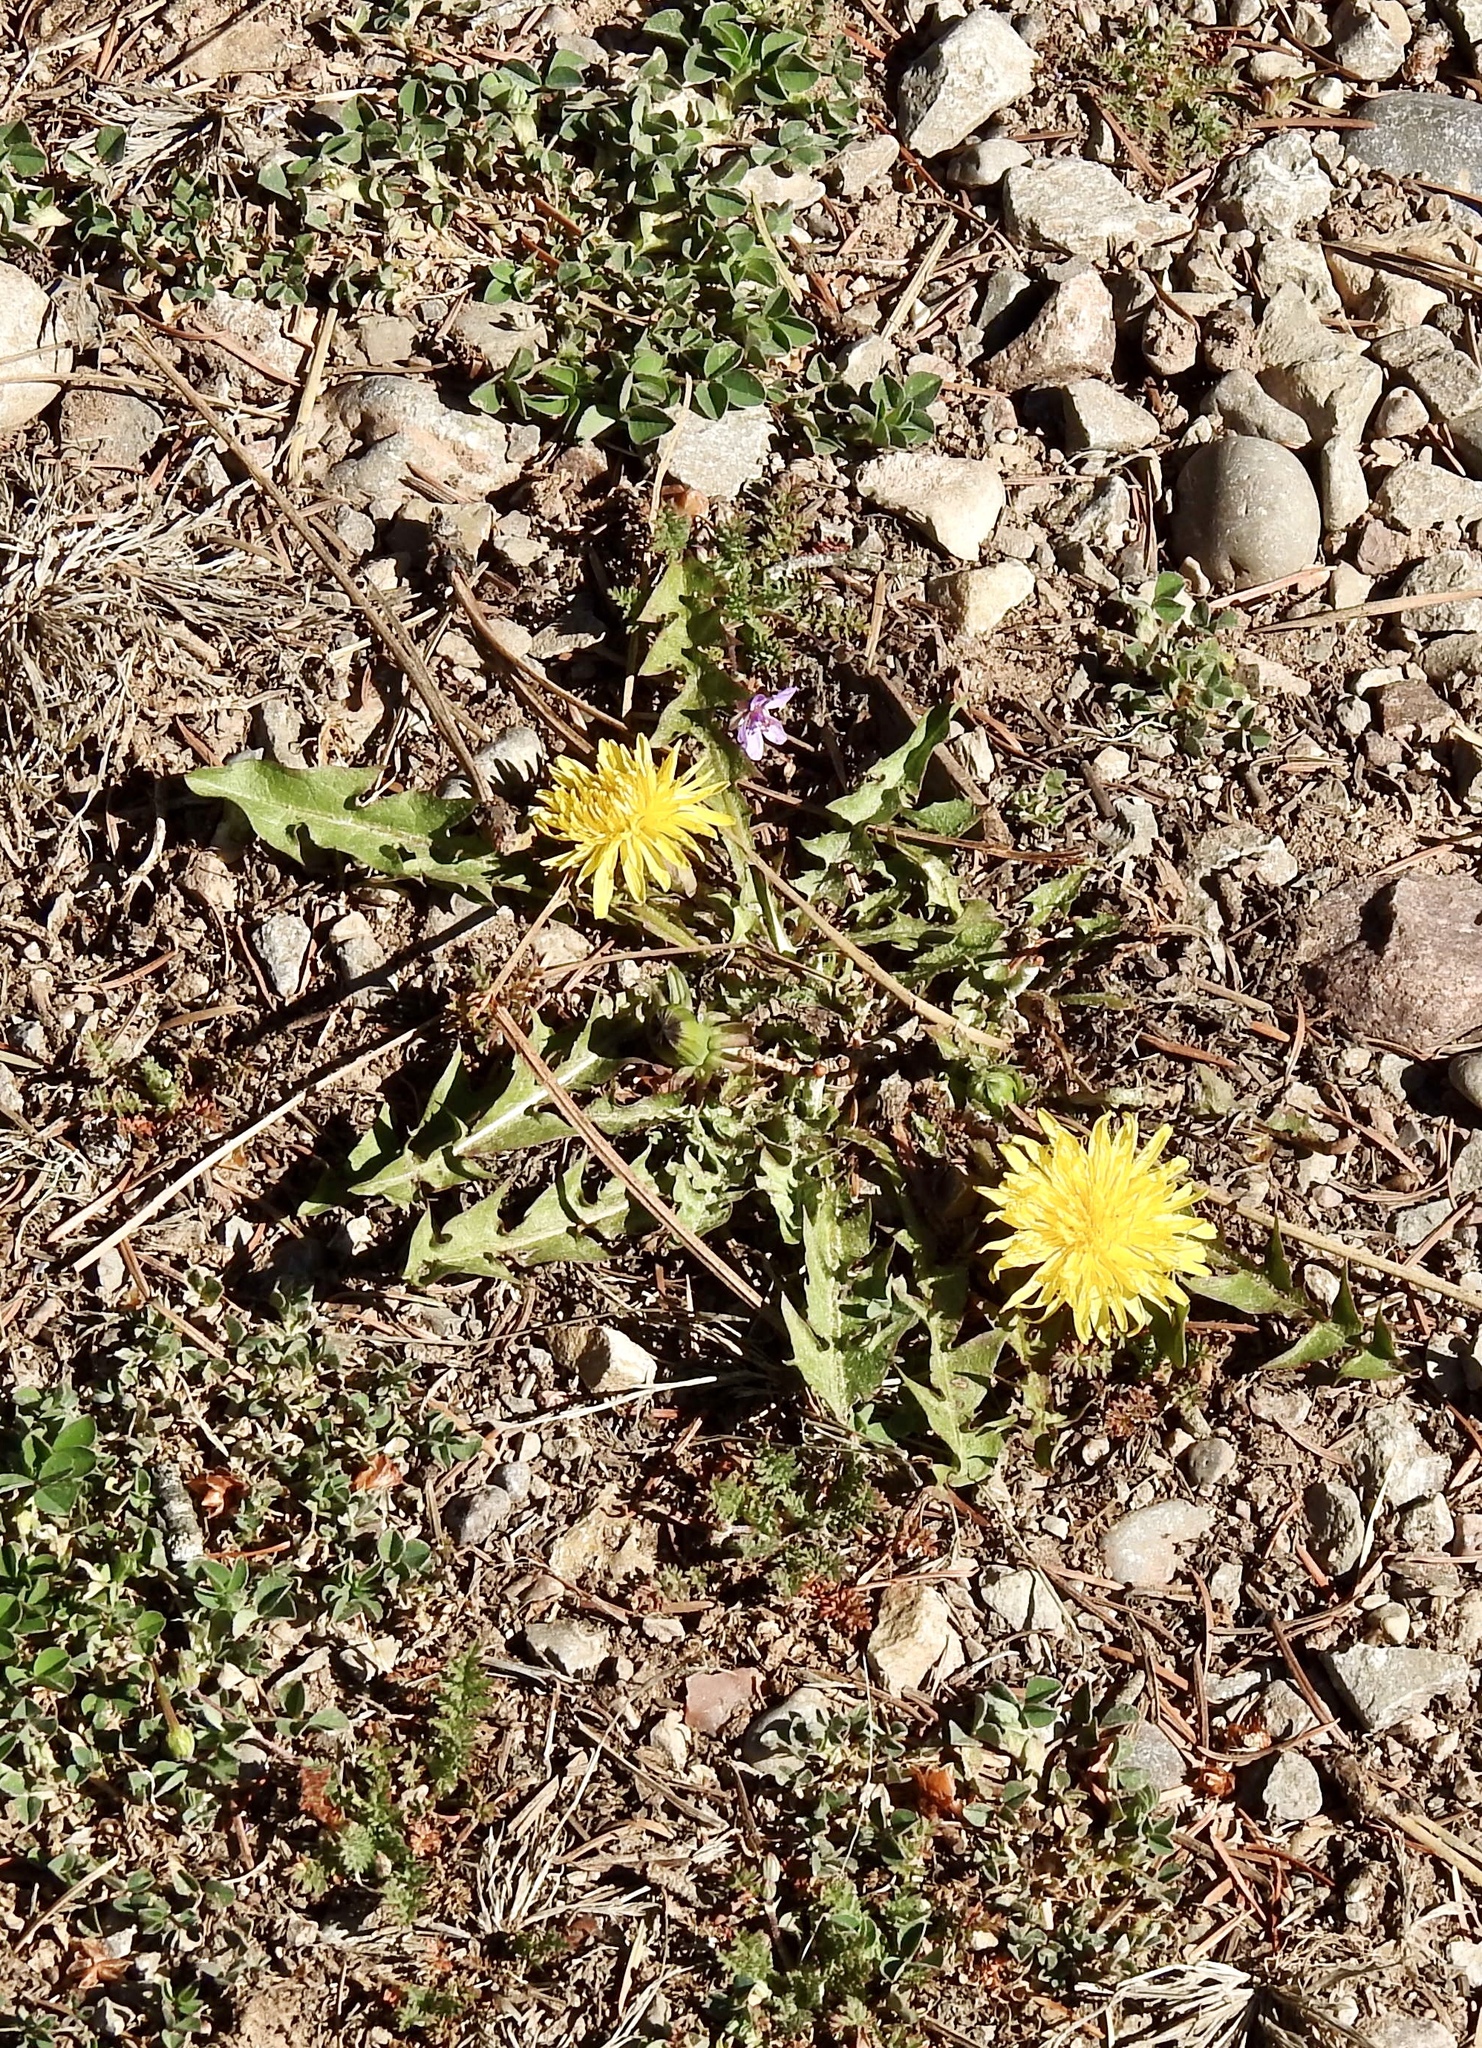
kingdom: Plantae
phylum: Tracheophyta
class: Magnoliopsida
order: Asterales
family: Asteraceae
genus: Taraxacum
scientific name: Taraxacum officinale
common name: Common dandelion
